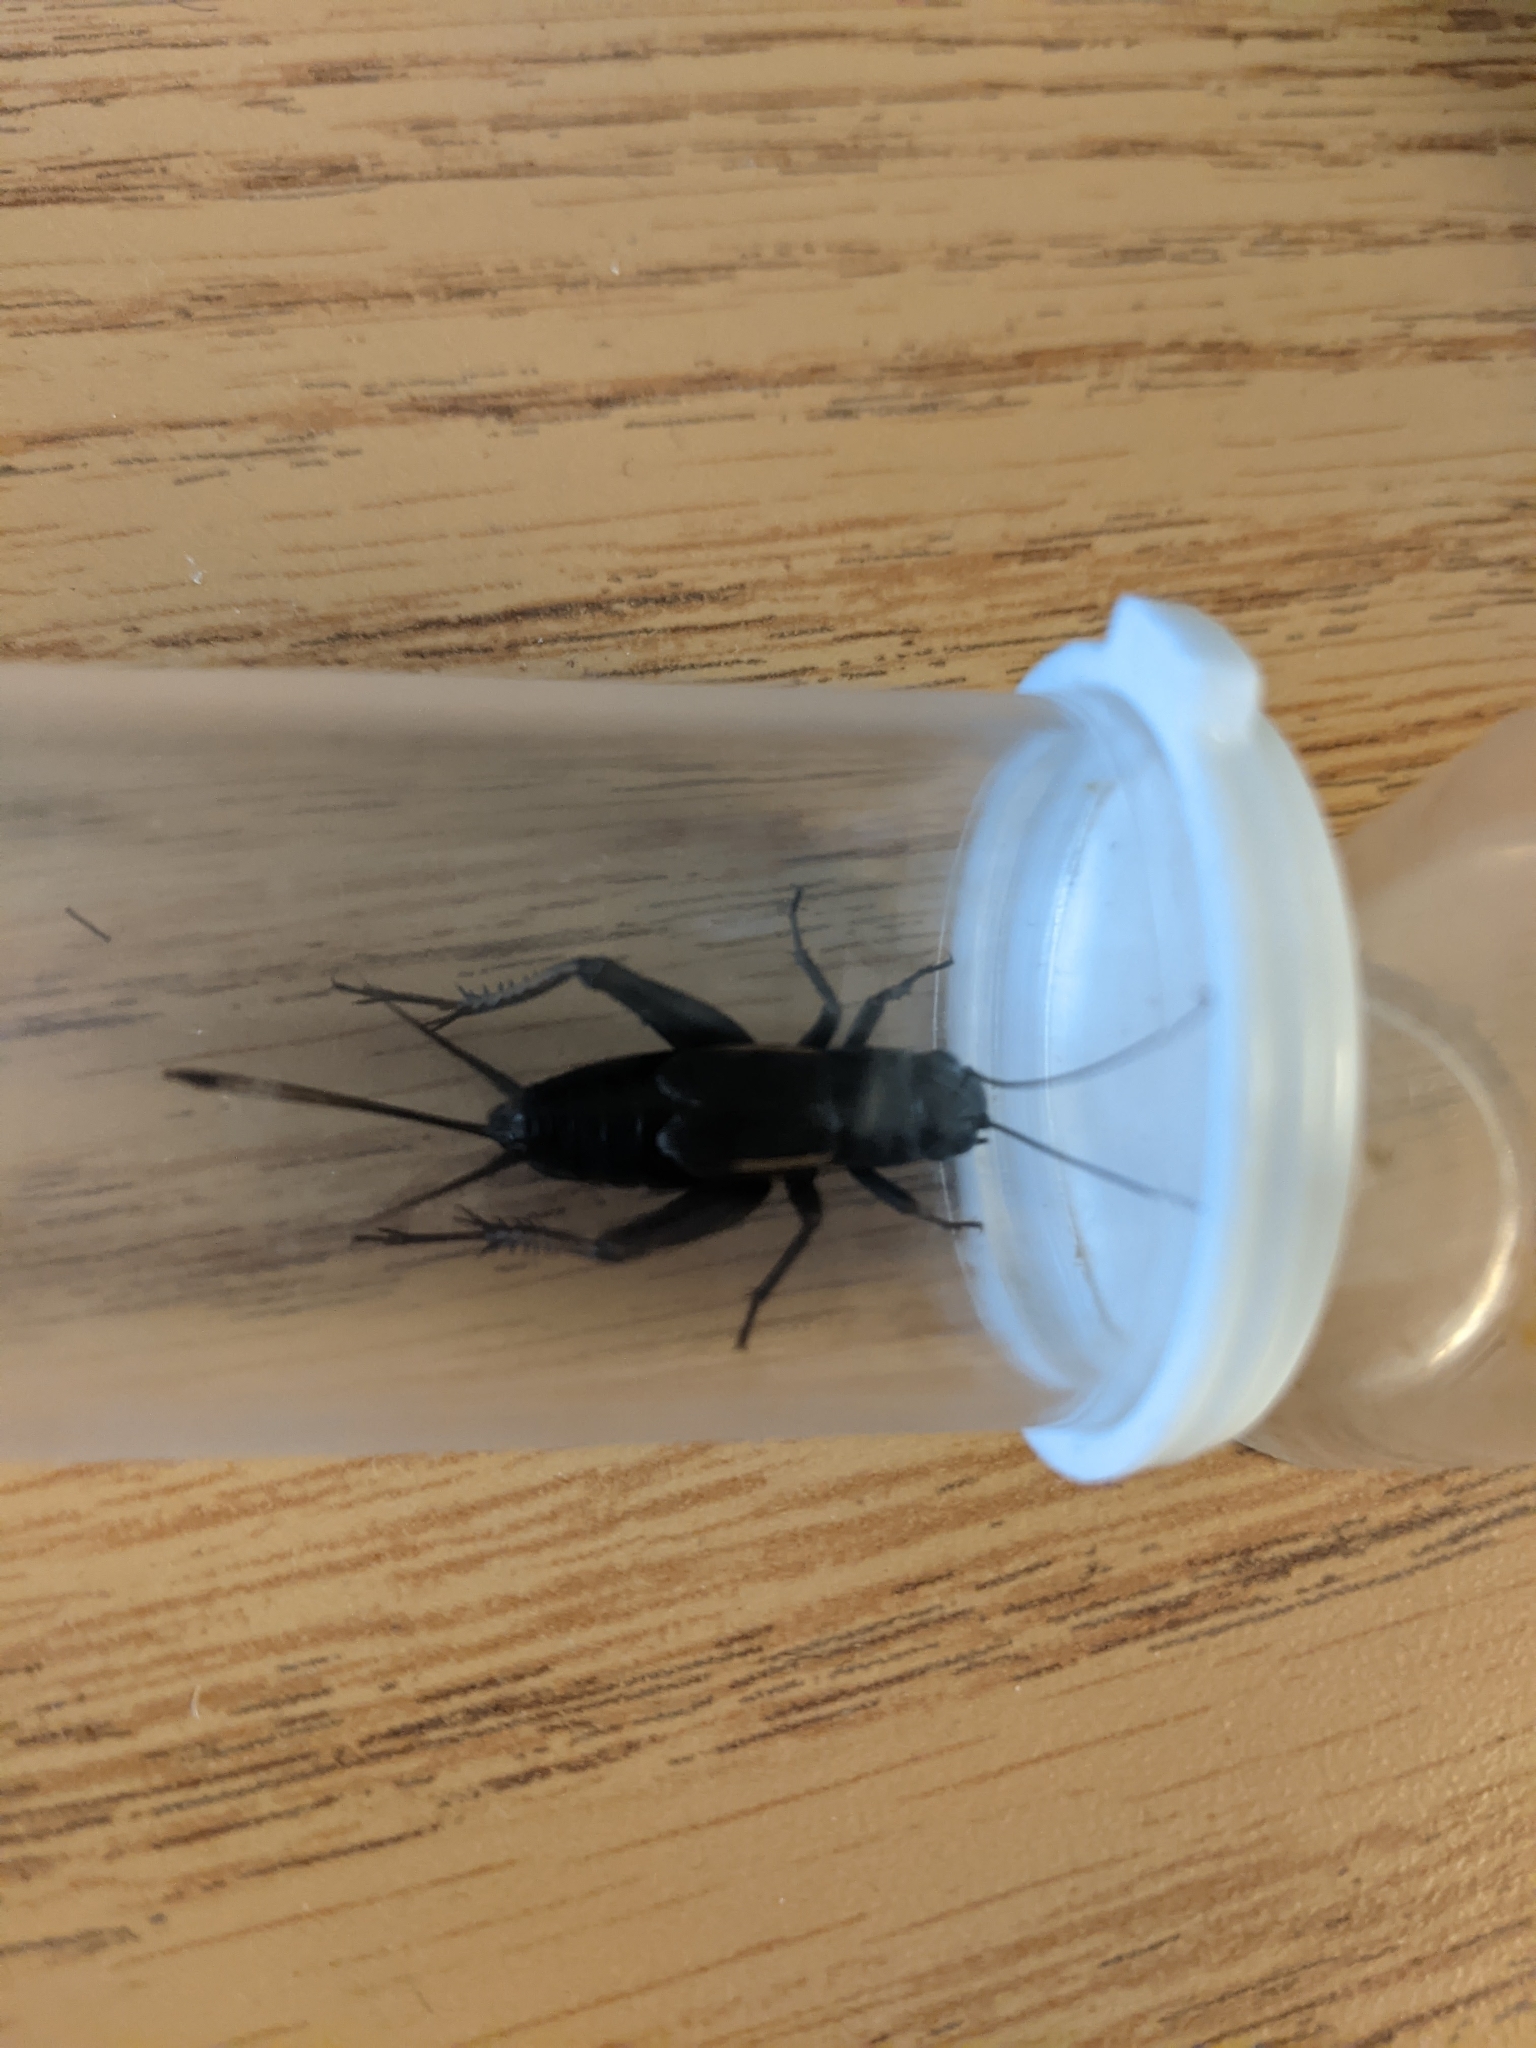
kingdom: Animalia
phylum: Arthropoda
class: Insecta
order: Orthoptera
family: Gryllidae
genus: Gryllus
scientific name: Gryllus pennsylvanicus
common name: Fall field cricket
